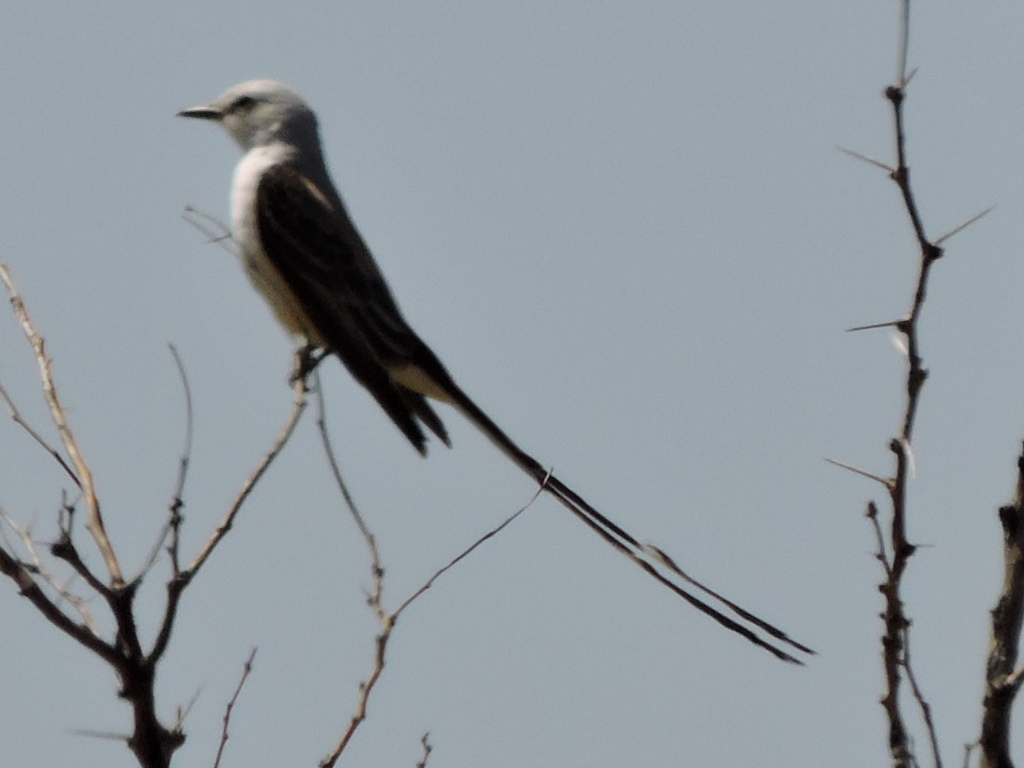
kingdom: Animalia
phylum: Chordata
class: Aves
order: Passeriformes
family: Tyrannidae
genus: Tyrannus
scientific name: Tyrannus forficatus
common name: Scissor-tailed flycatcher
